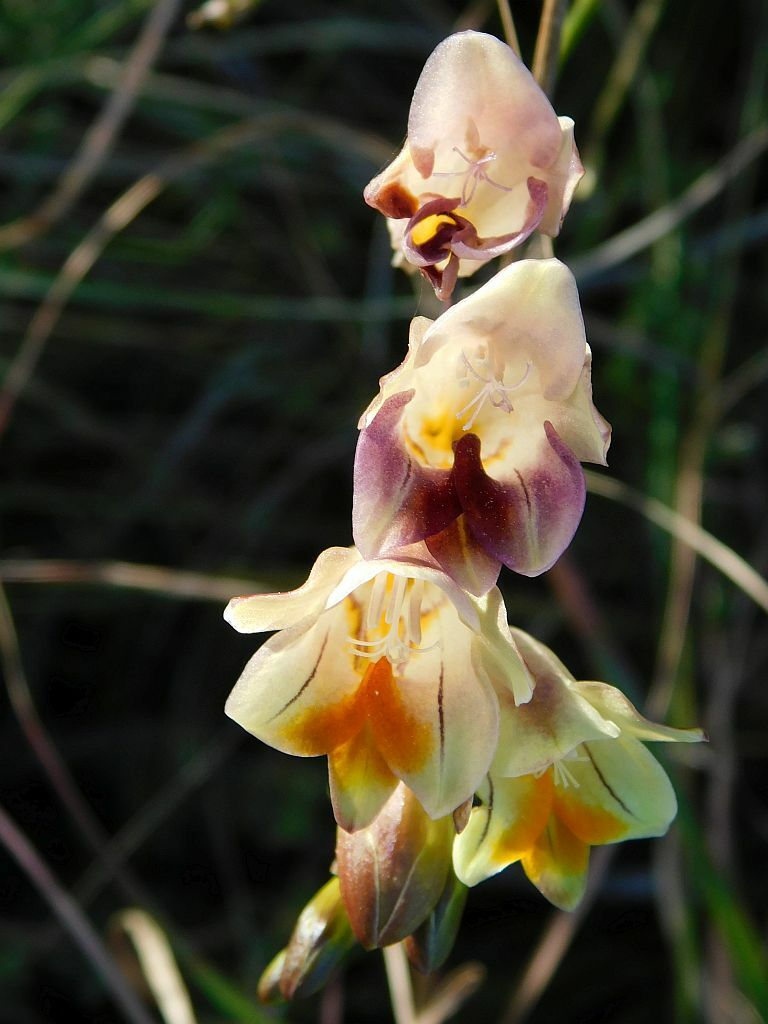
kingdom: Plantae
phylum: Tracheophyta
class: Liliopsida
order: Asparagales
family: Iridaceae
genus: Freesia
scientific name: Freesia refracta
